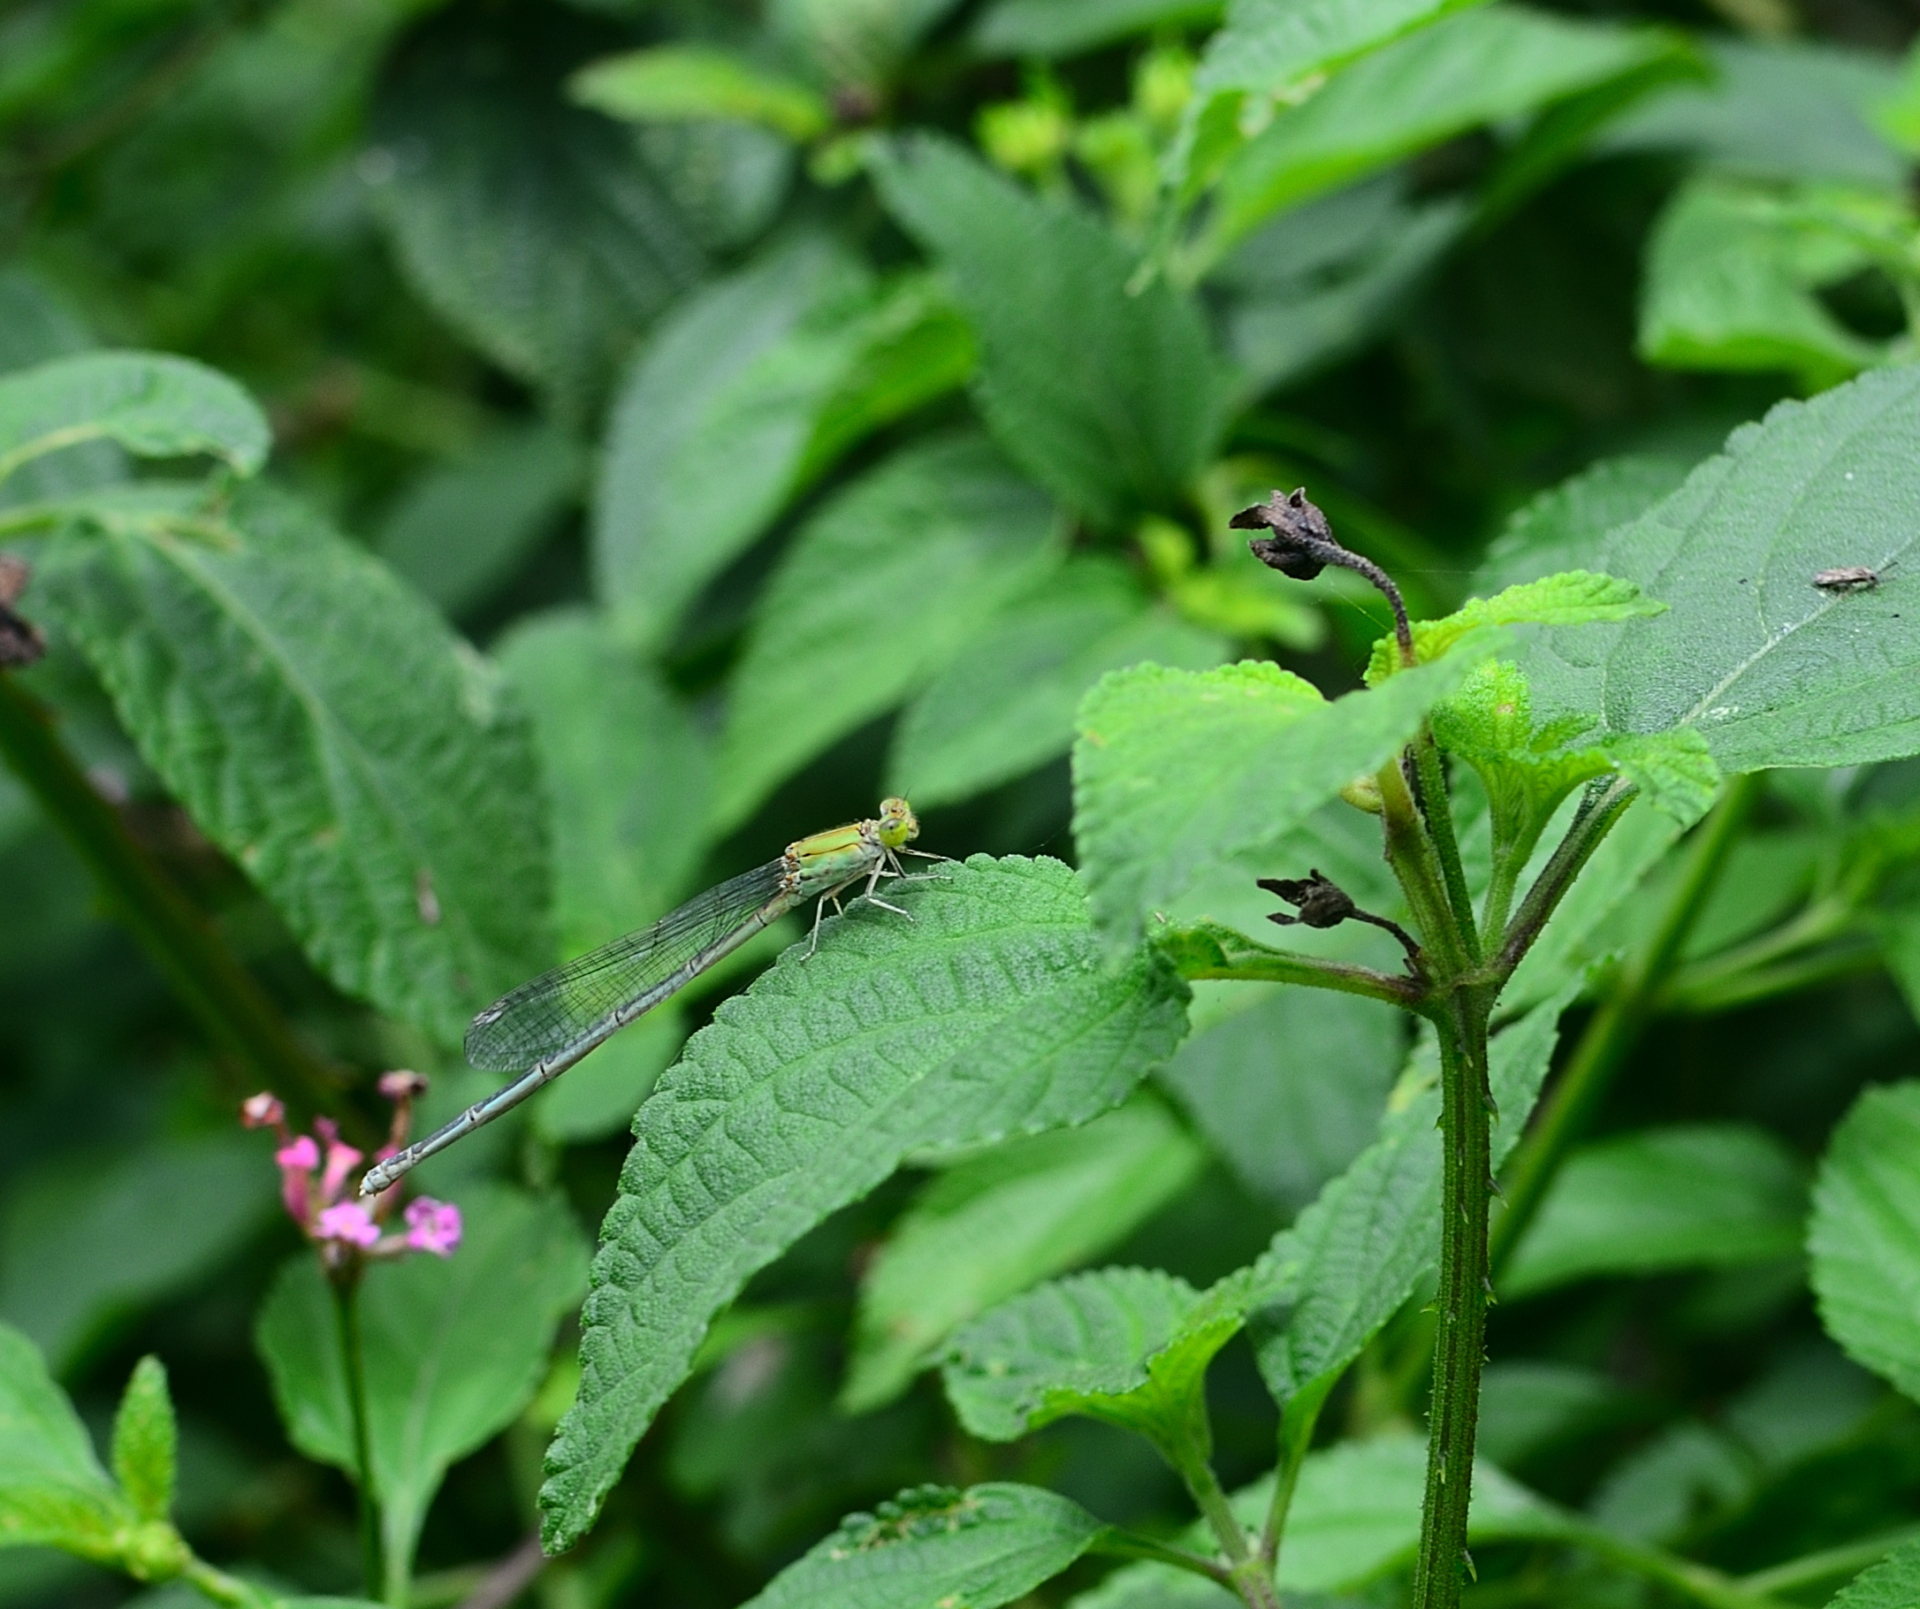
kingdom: Animalia
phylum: Arthropoda
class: Insecta
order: Odonata
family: Coenagrionidae
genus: Pseudagrion
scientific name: Pseudagrion decorum
